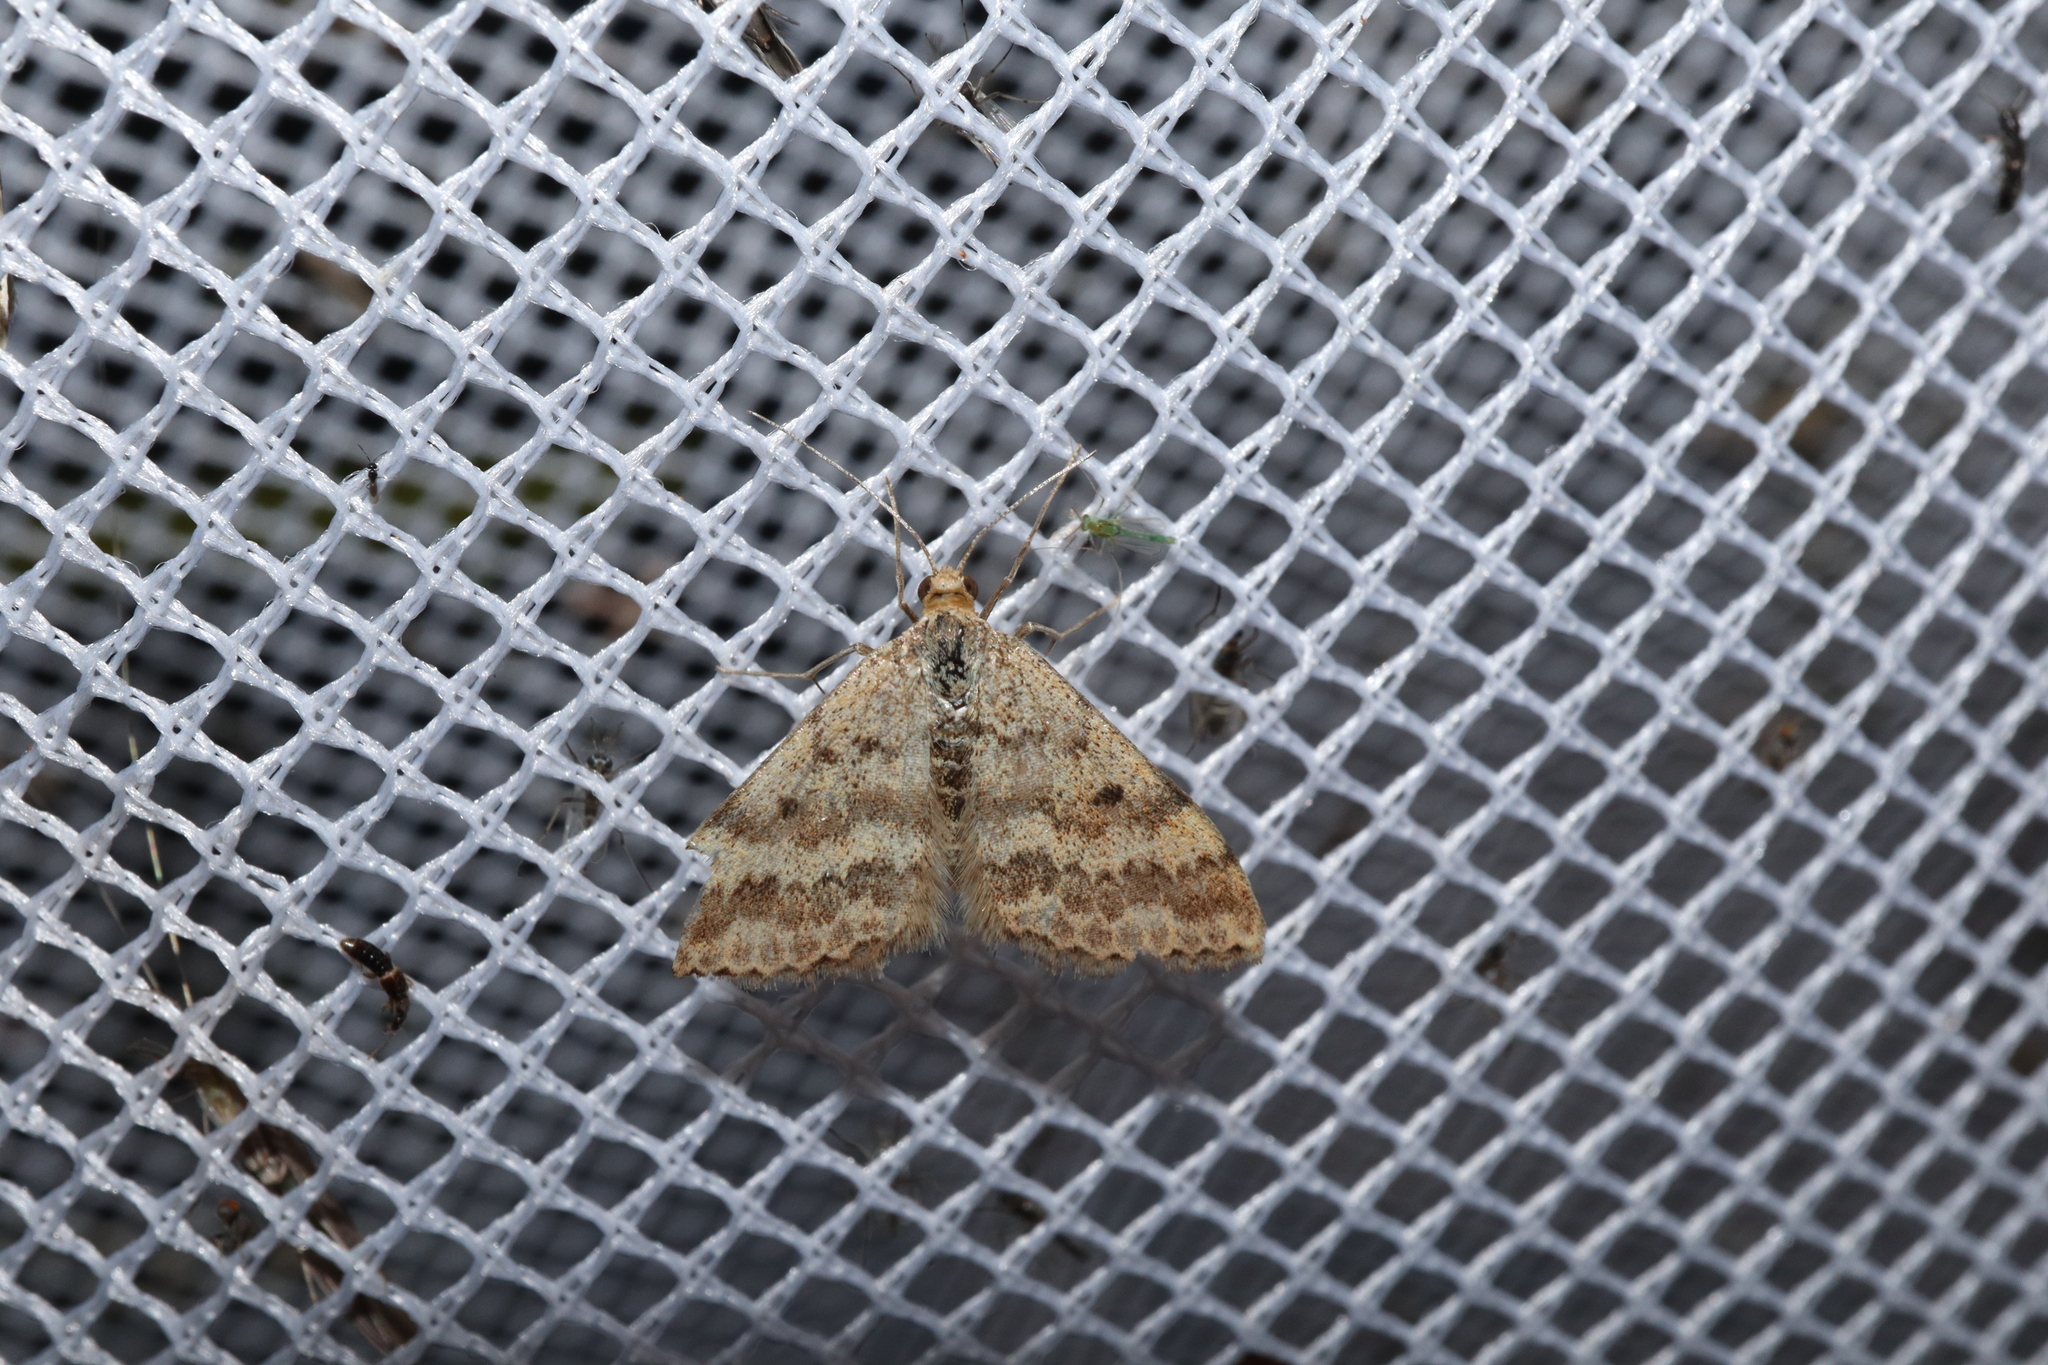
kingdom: Animalia
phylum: Arthropoda
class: Insecta
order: Lepidoptera
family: Geometridae
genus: Scopula
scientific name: Scopula rubraria
